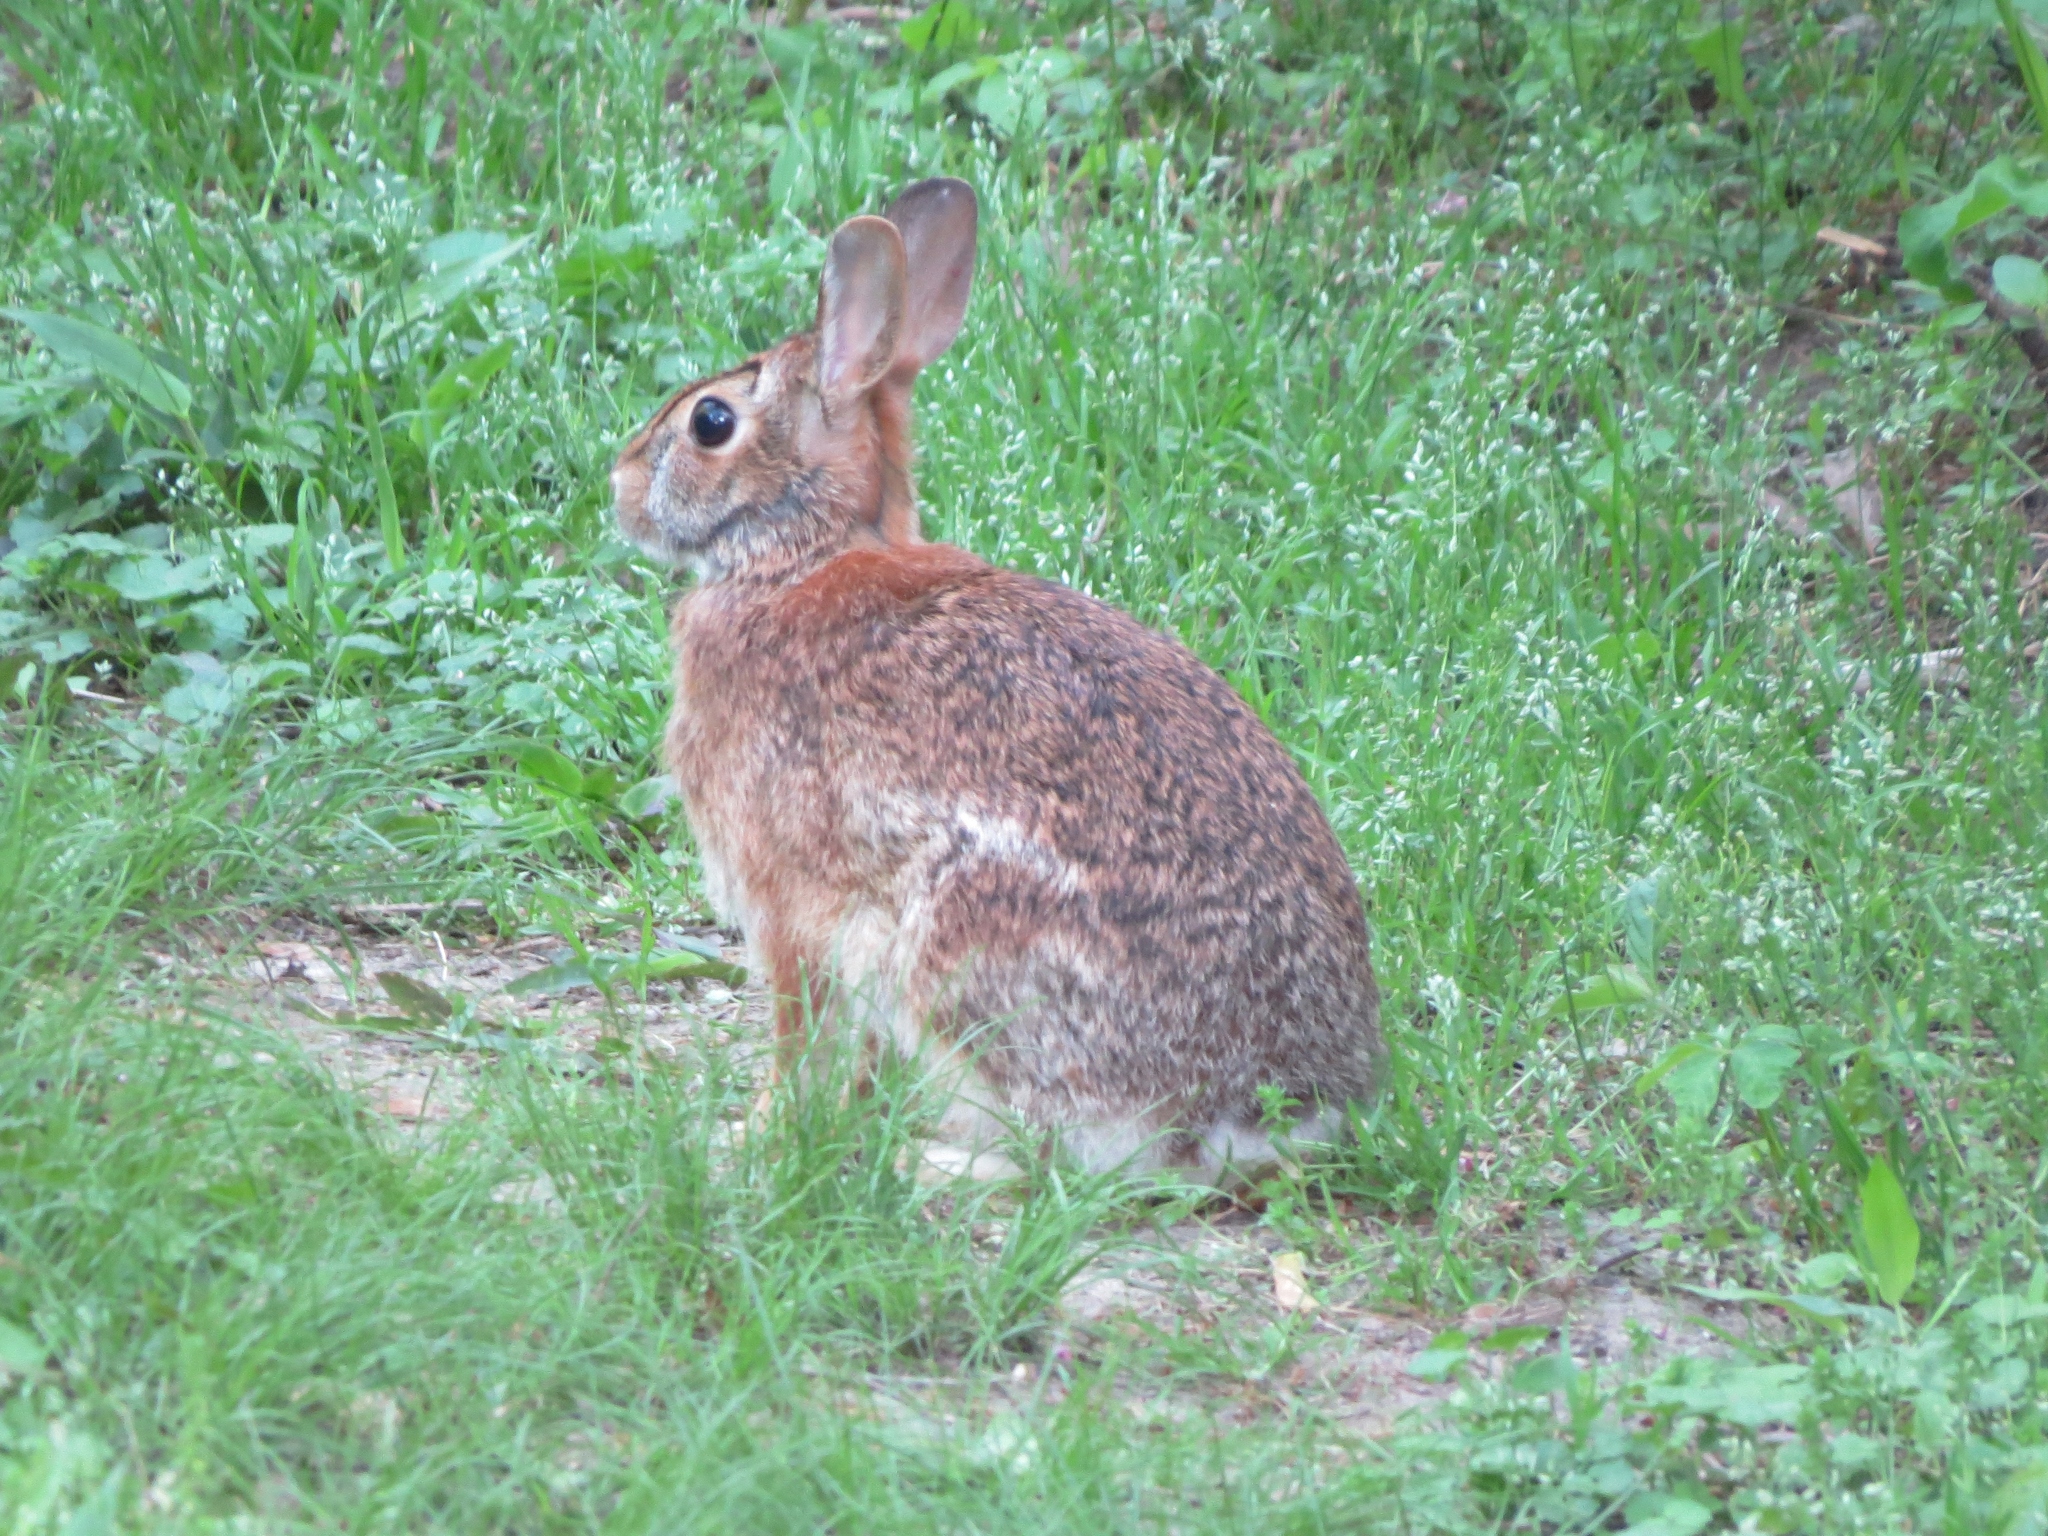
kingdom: Animalia
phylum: Chordata
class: Mammalia
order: Lagomorpha
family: Leporidae
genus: Sylvilagus
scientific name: Sylvilagus floridanus
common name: Eastern cottontail
